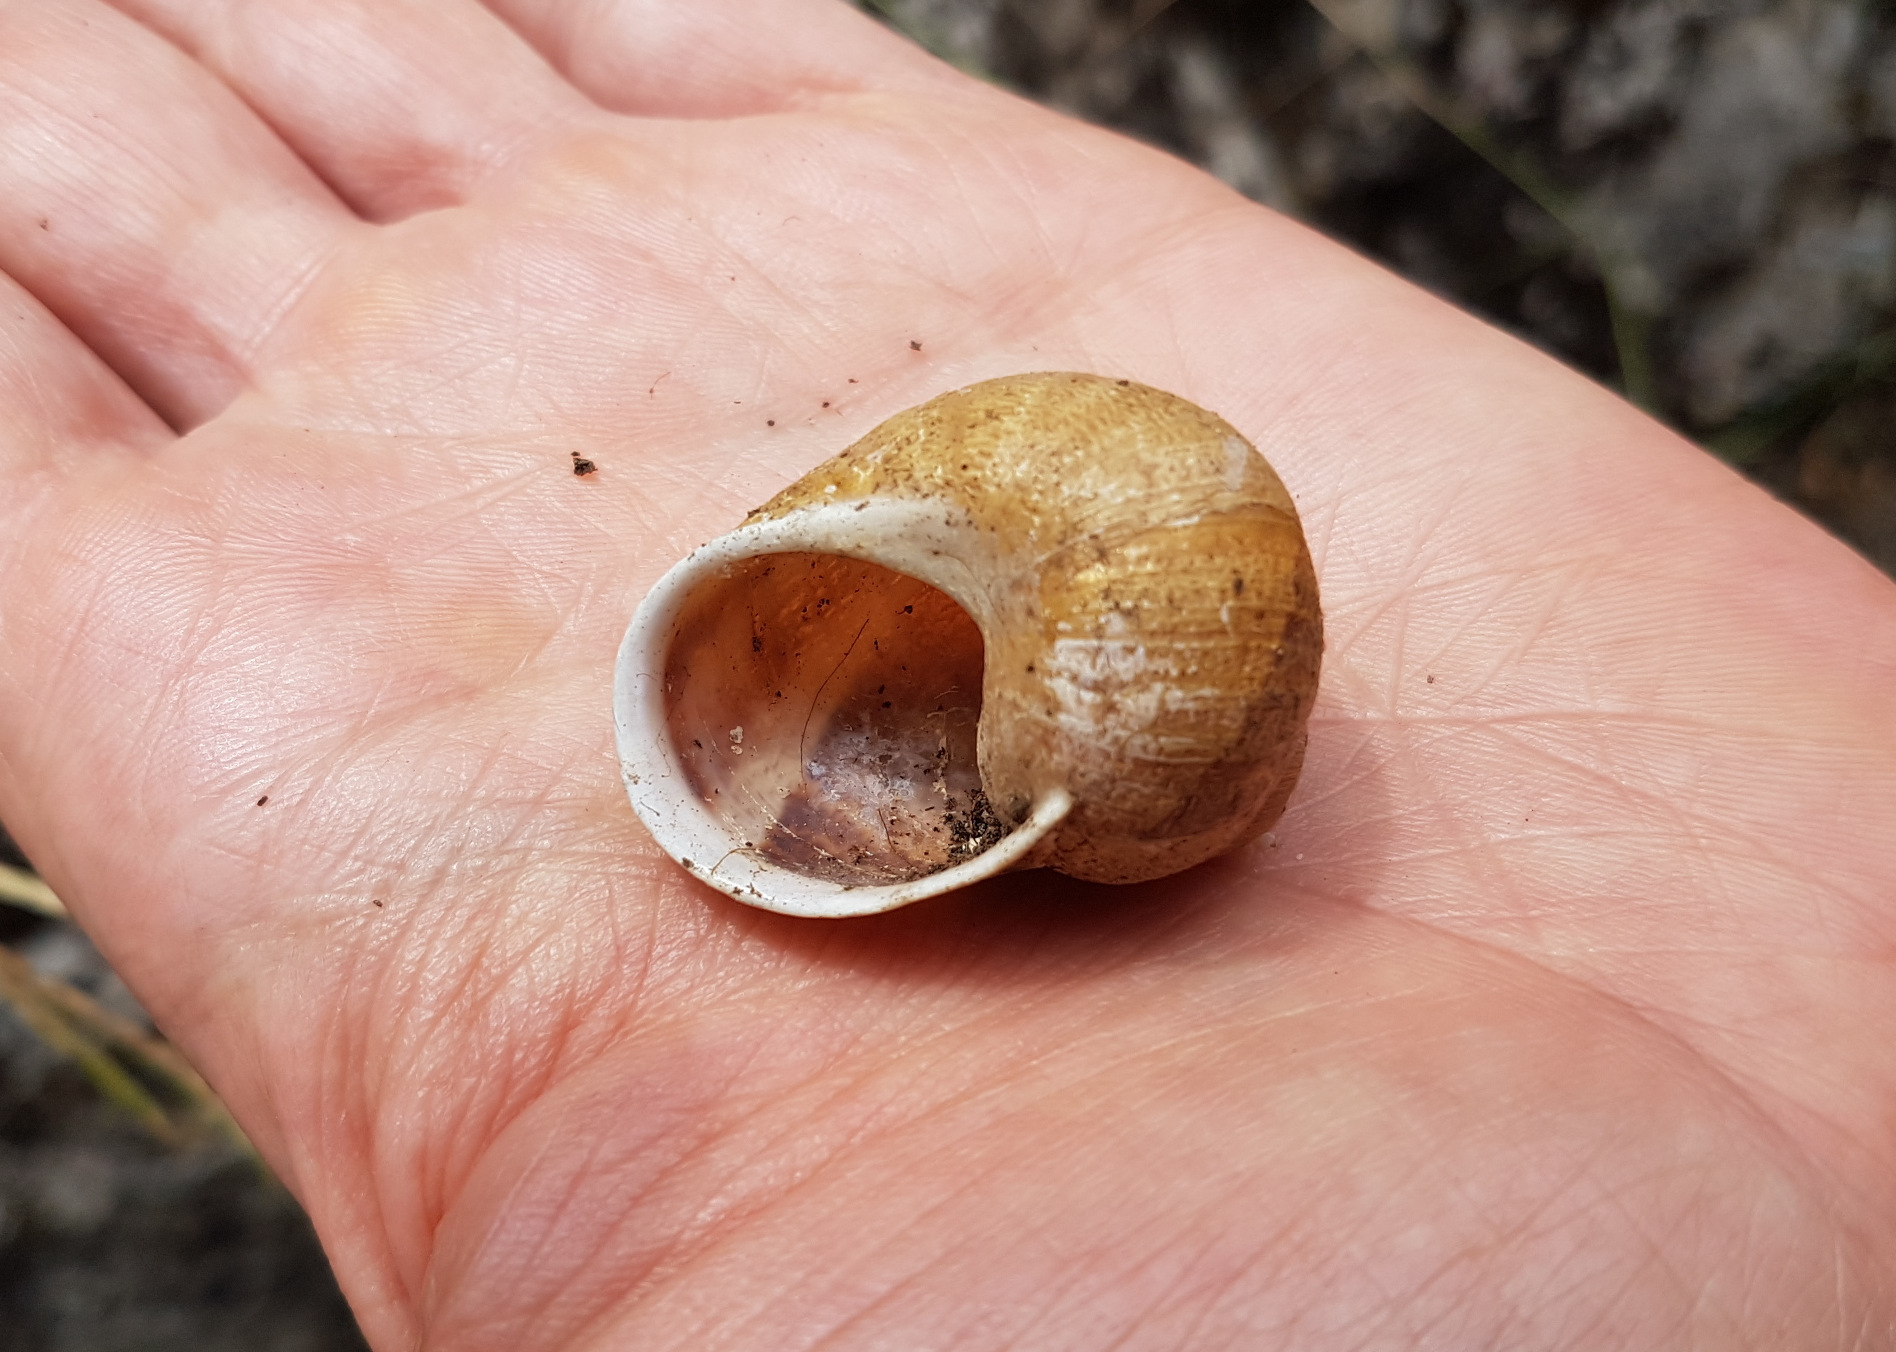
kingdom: Animalia
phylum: Mollusca
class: Gastropoda
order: Stylommatophora
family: Helicidae
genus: Cornu
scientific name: Cornu aspersum
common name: Brown garden snail
